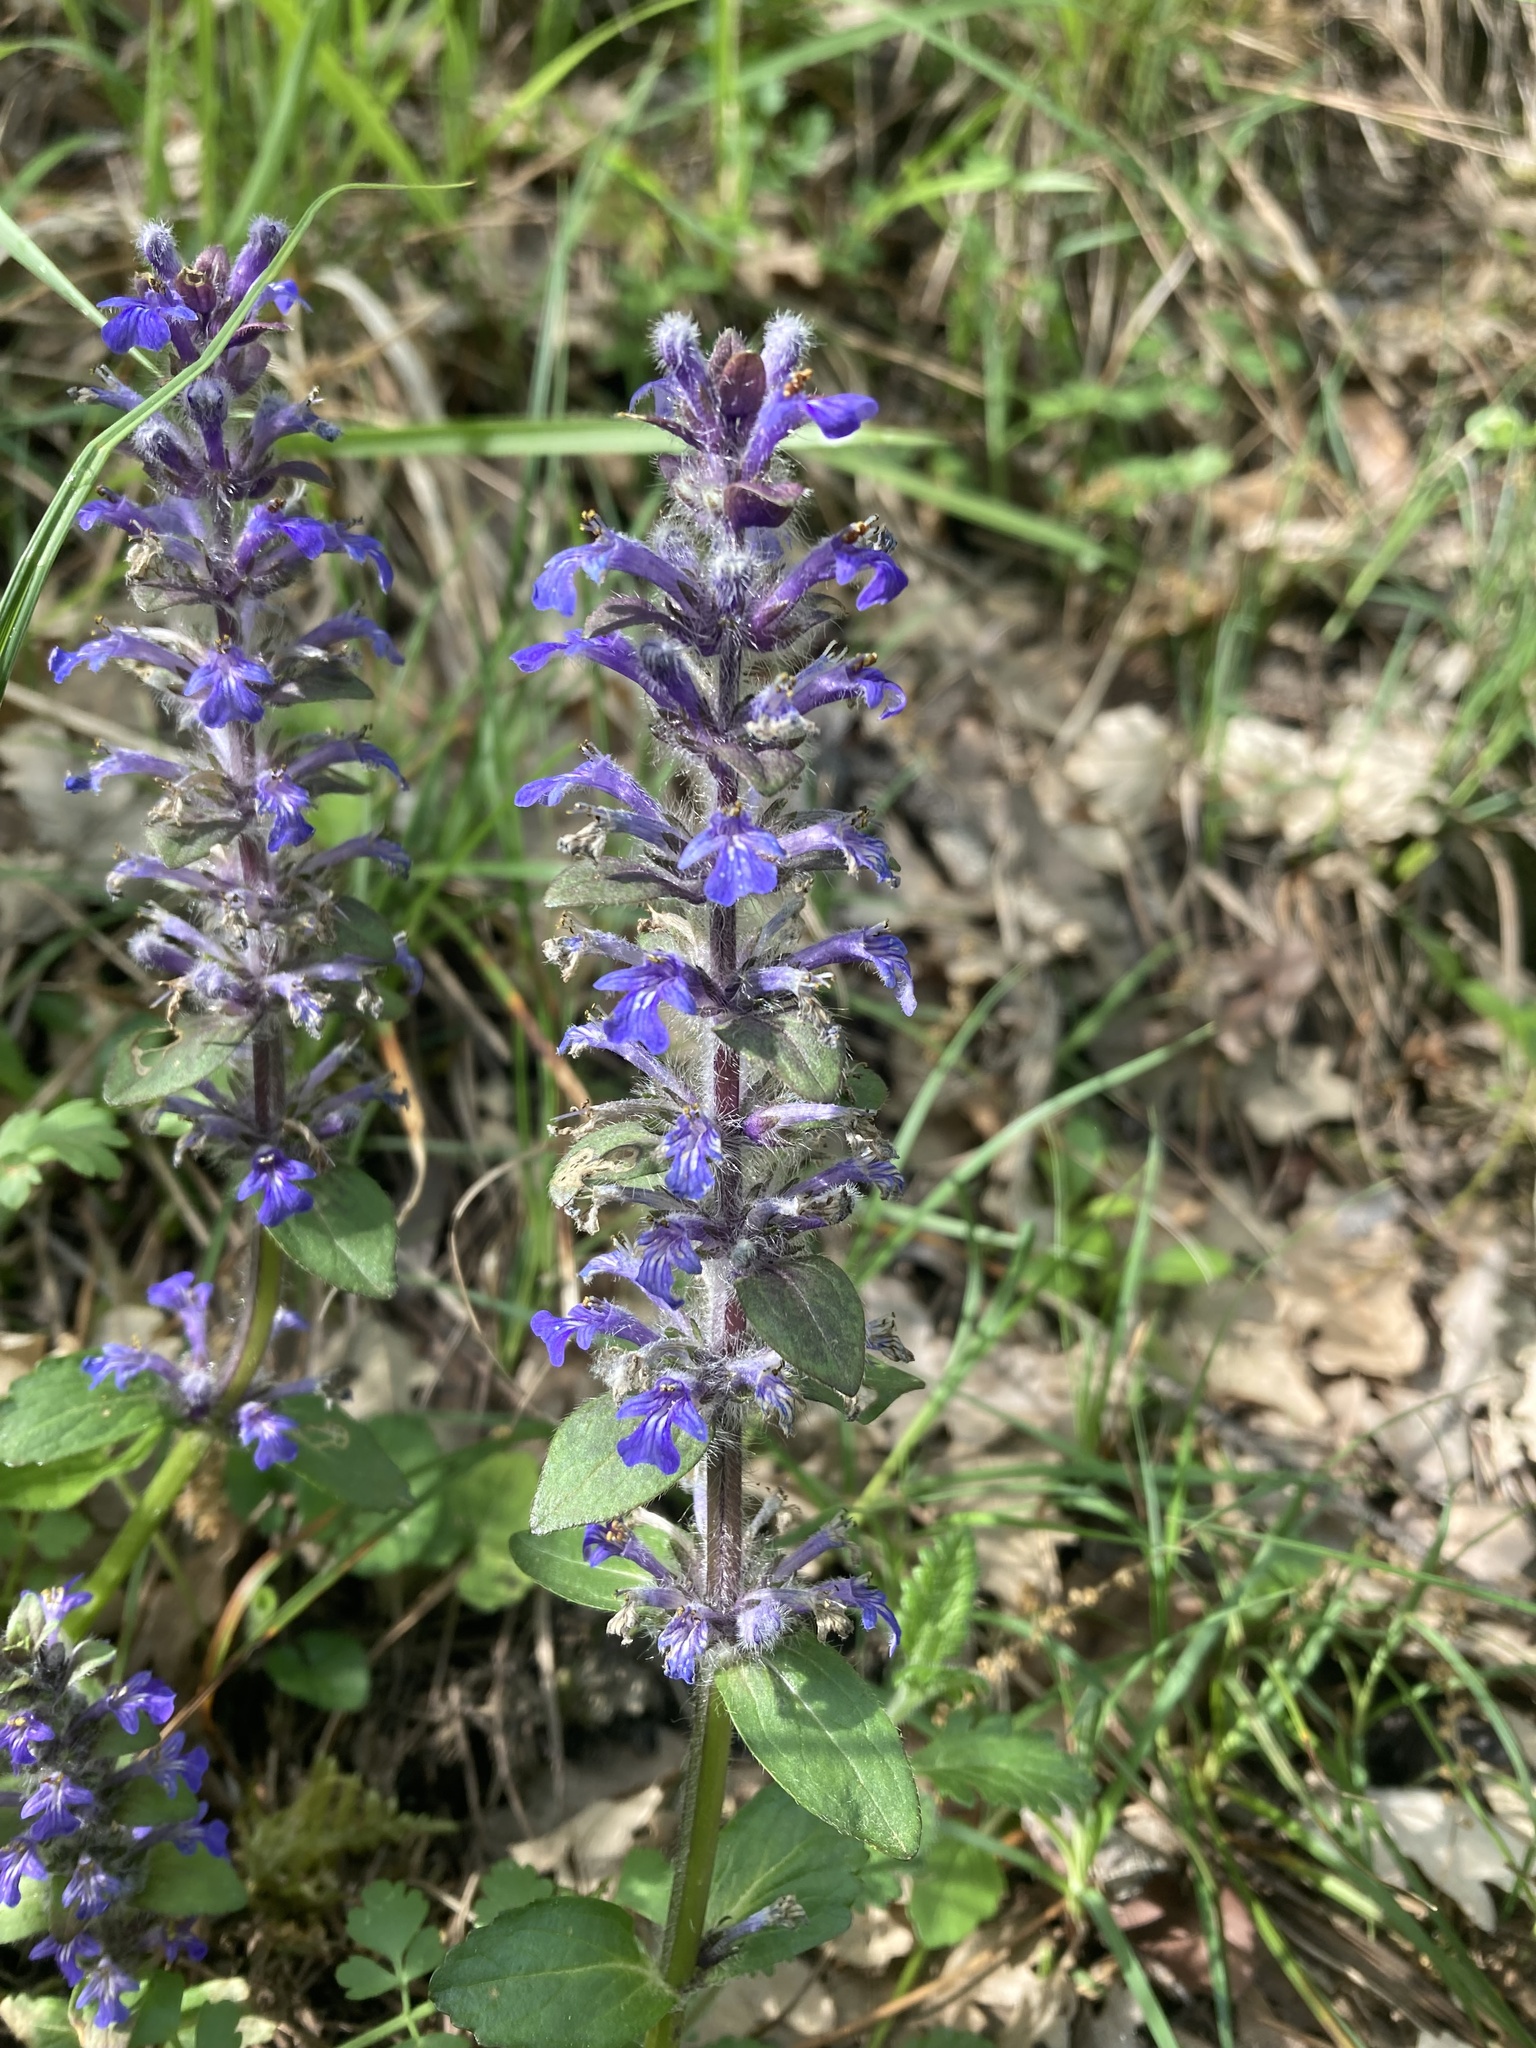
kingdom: Plantae
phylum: Tracheophyta
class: Magnoliopsida
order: Lamiales
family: Lamiaceae
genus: Ajuga
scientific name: Ajuga reptans
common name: Bugle
